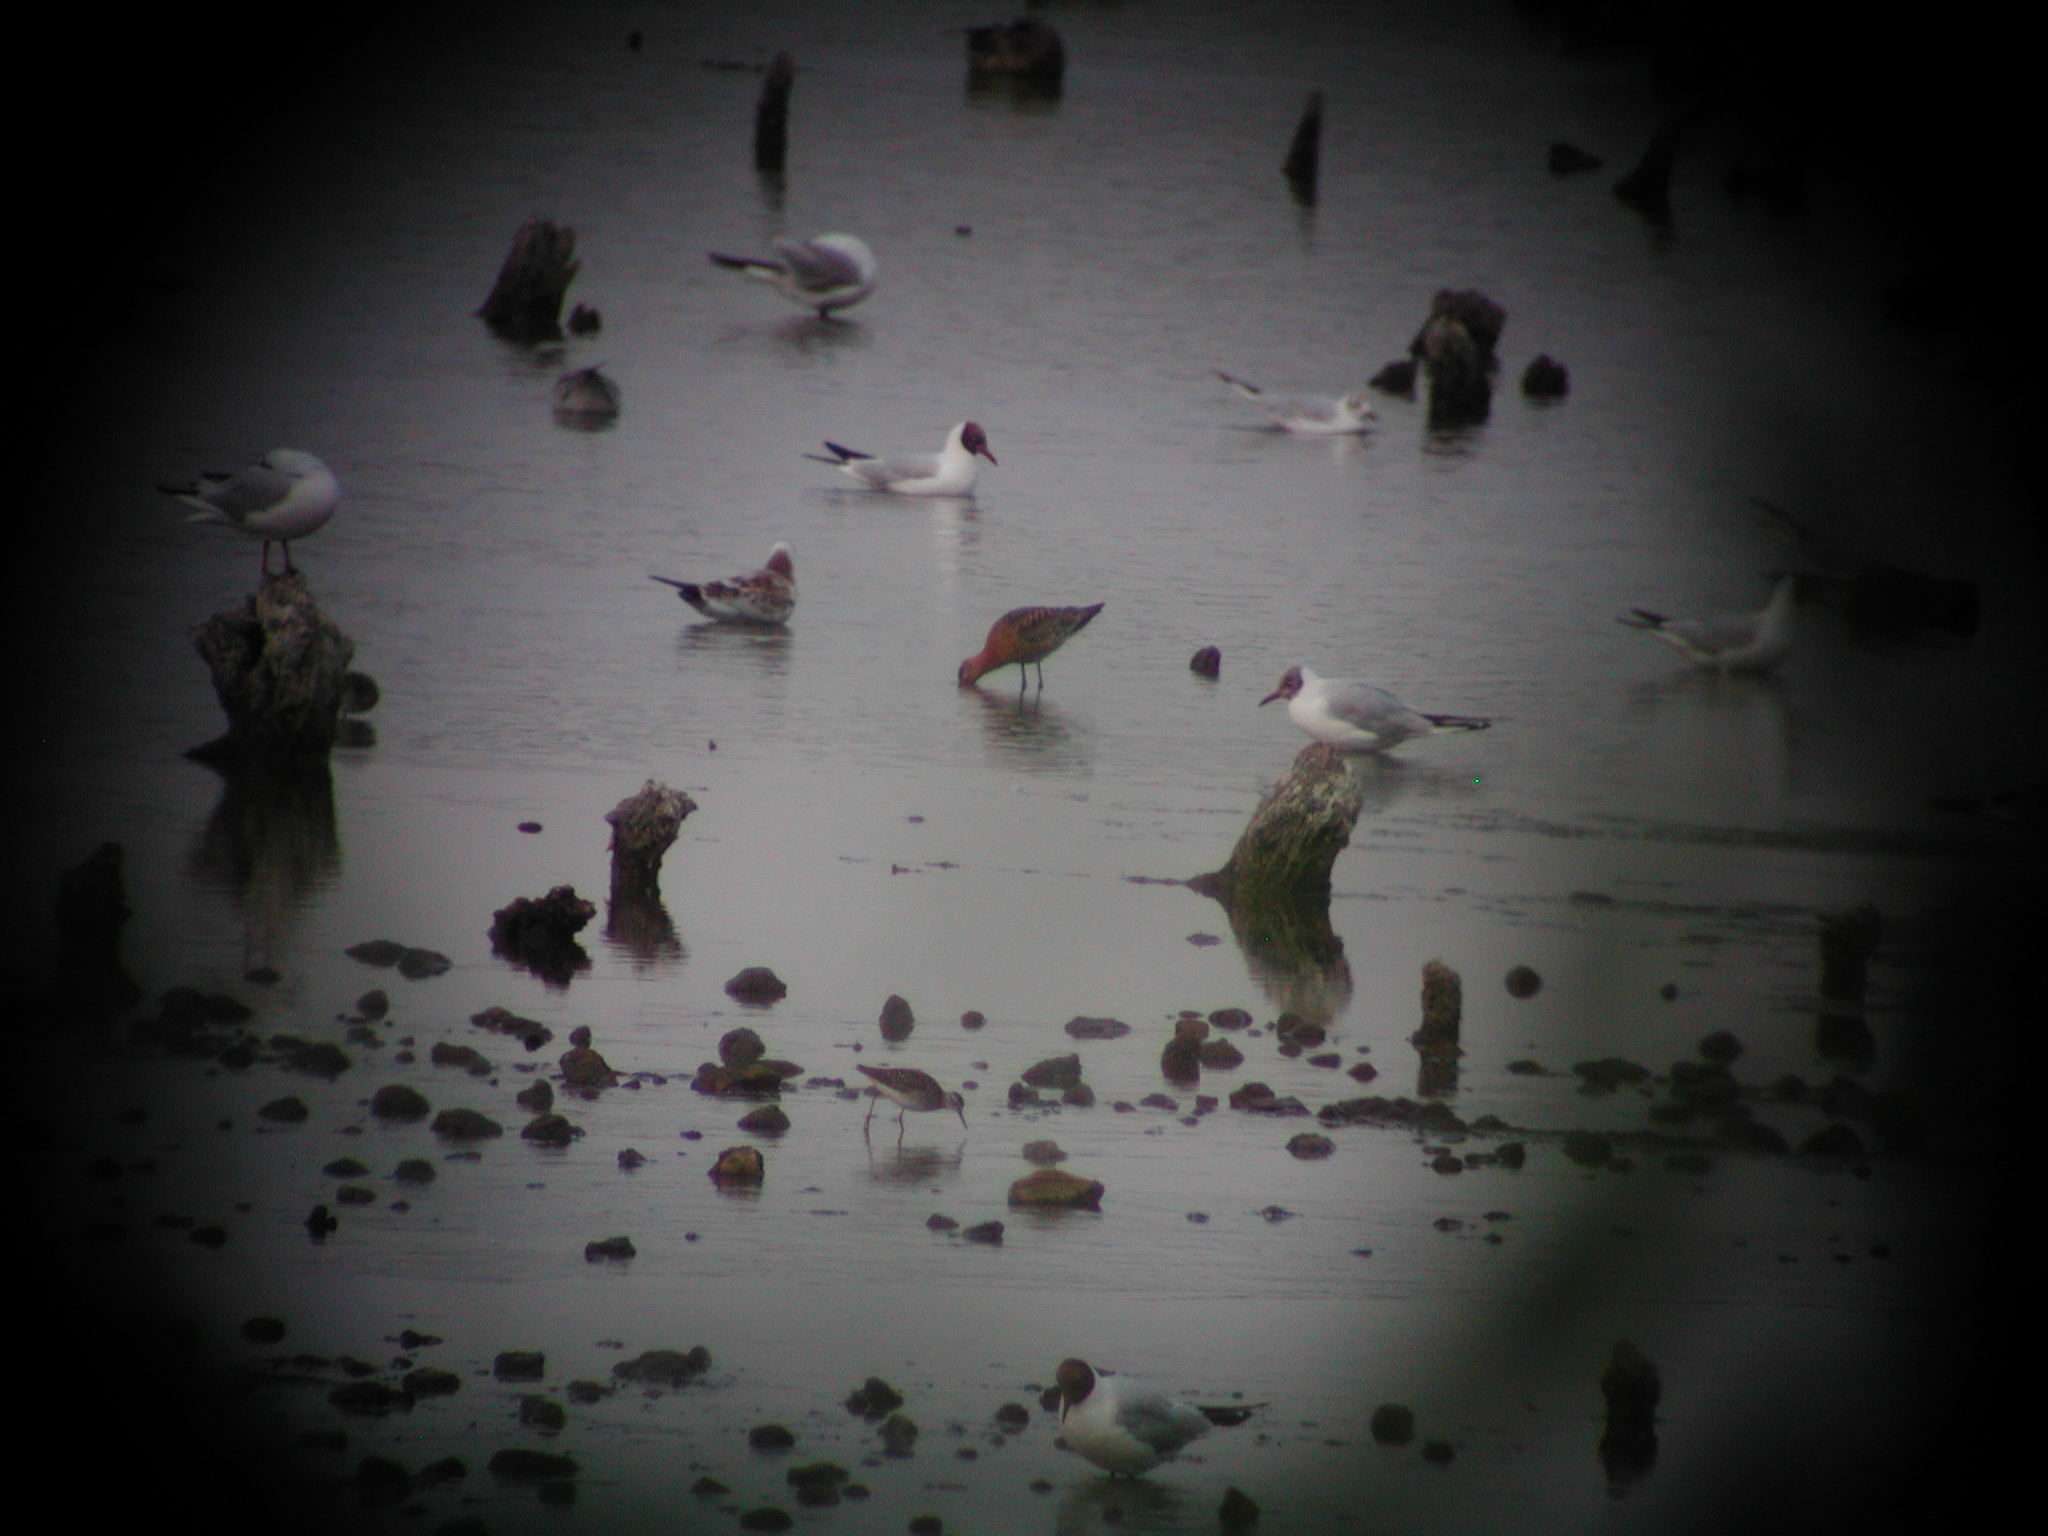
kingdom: Animalia
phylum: Chordata
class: Aves
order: Charadriiformes
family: Scolopacidae
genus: Limosa
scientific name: Limosa limosa
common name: Black-tailed godwit
